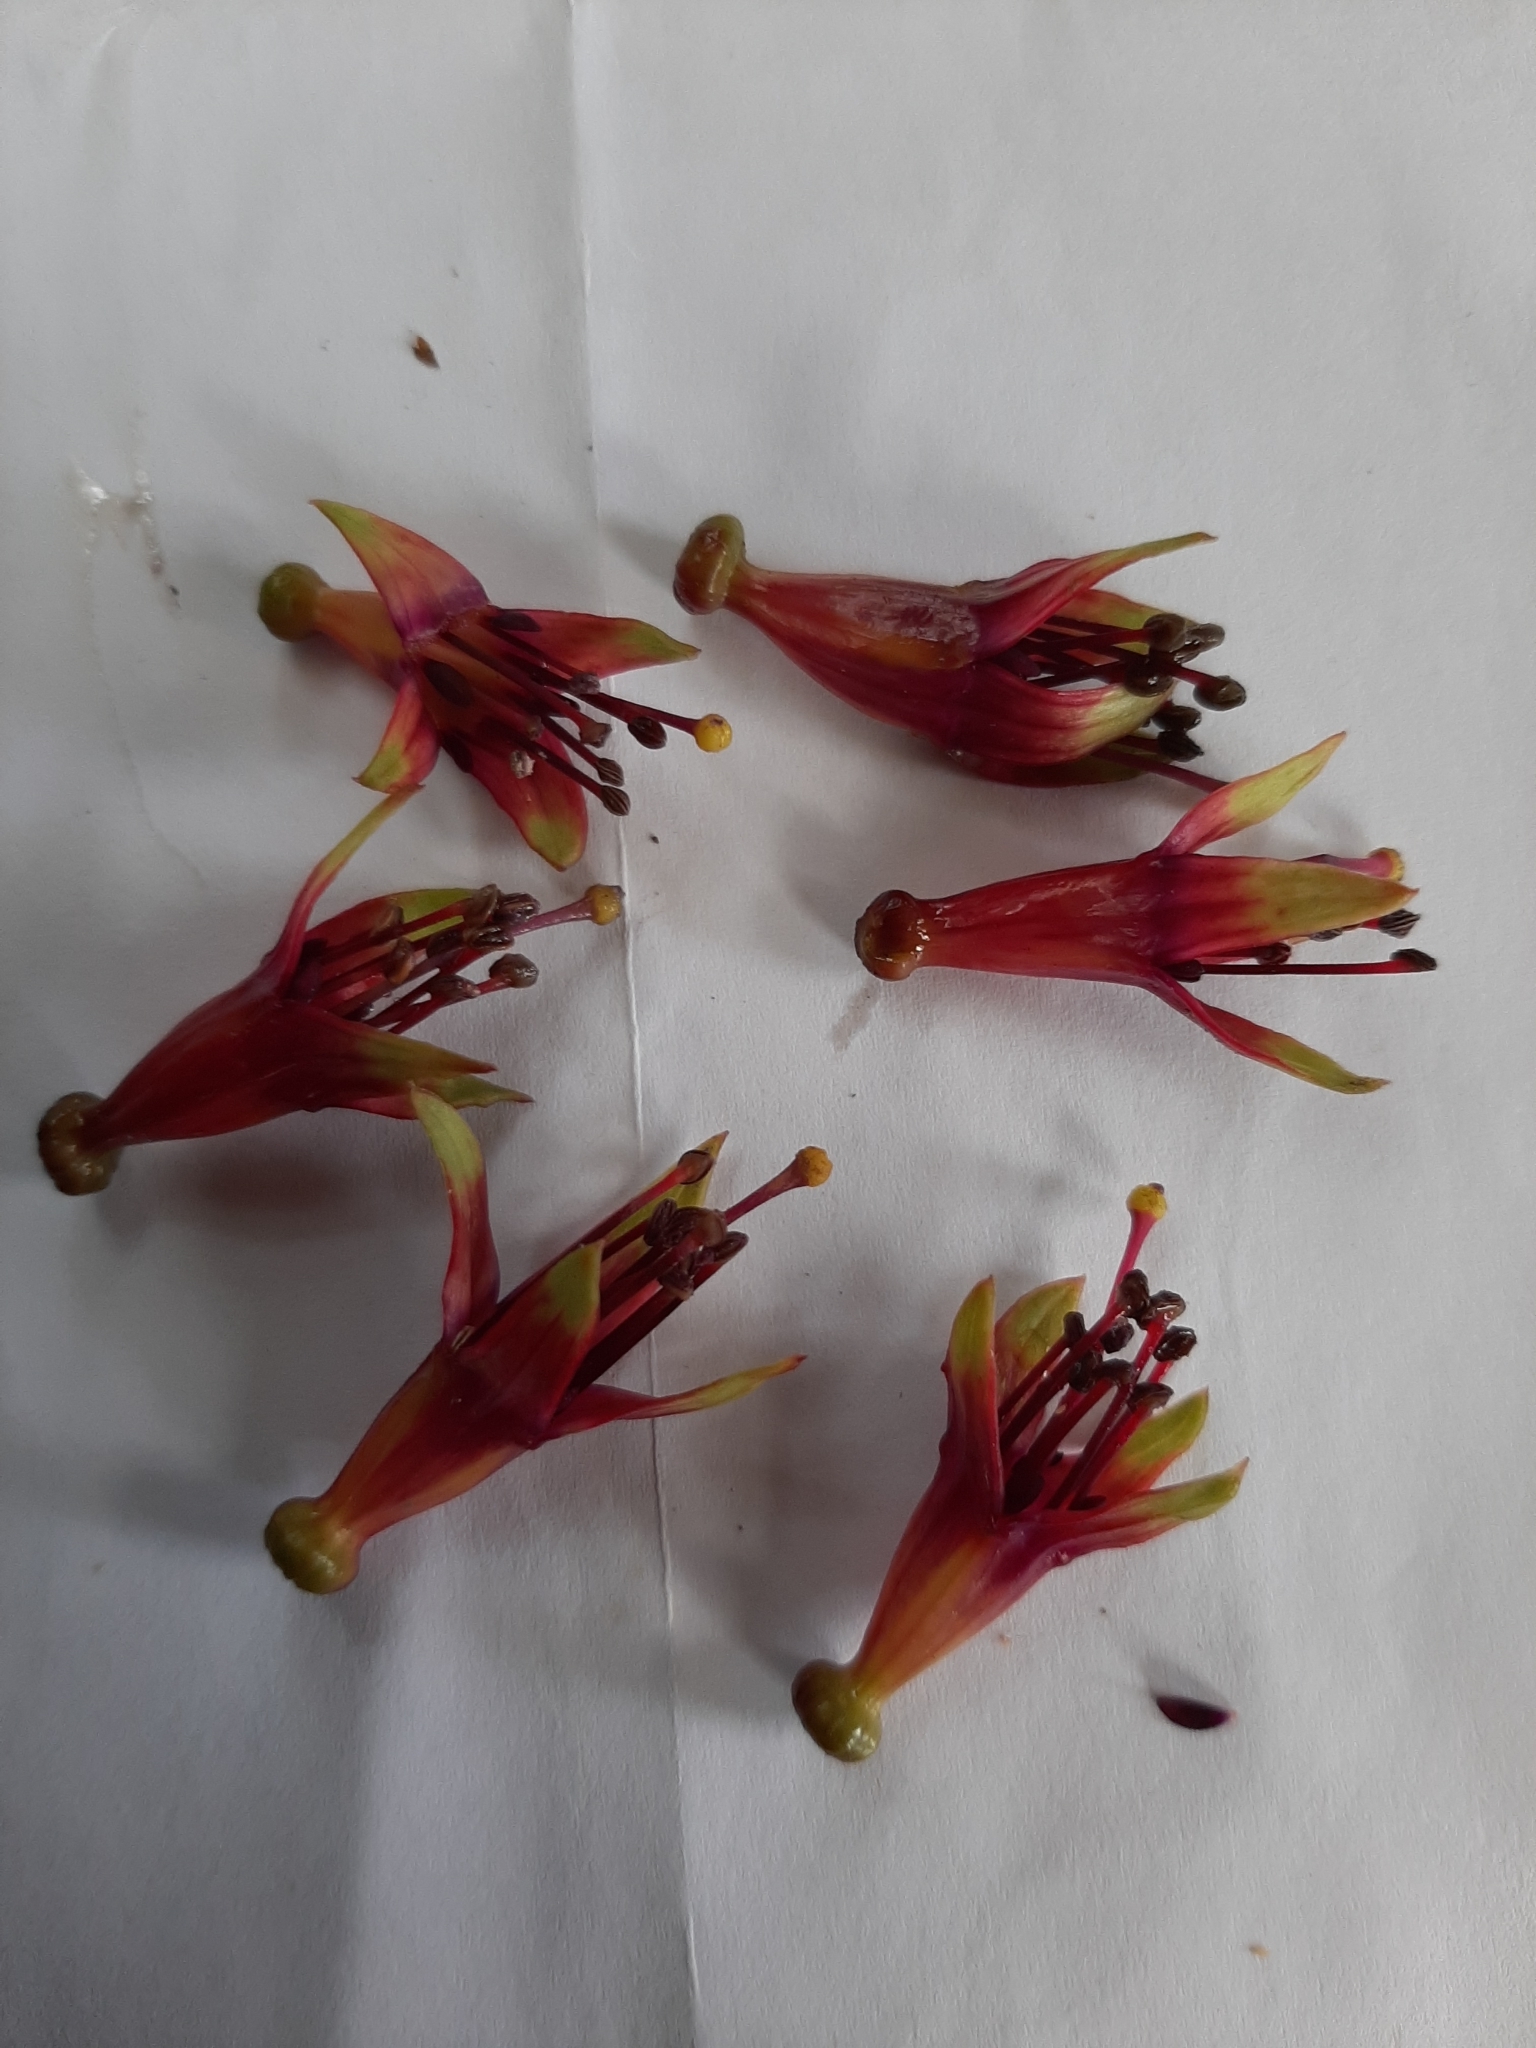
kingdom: Plantae
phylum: Tracheophyta
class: Magnoliopsida
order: Myrtales
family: Onagraceae
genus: Fuchsia
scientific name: Fuchsia excorticata
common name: Tree fuchsia
